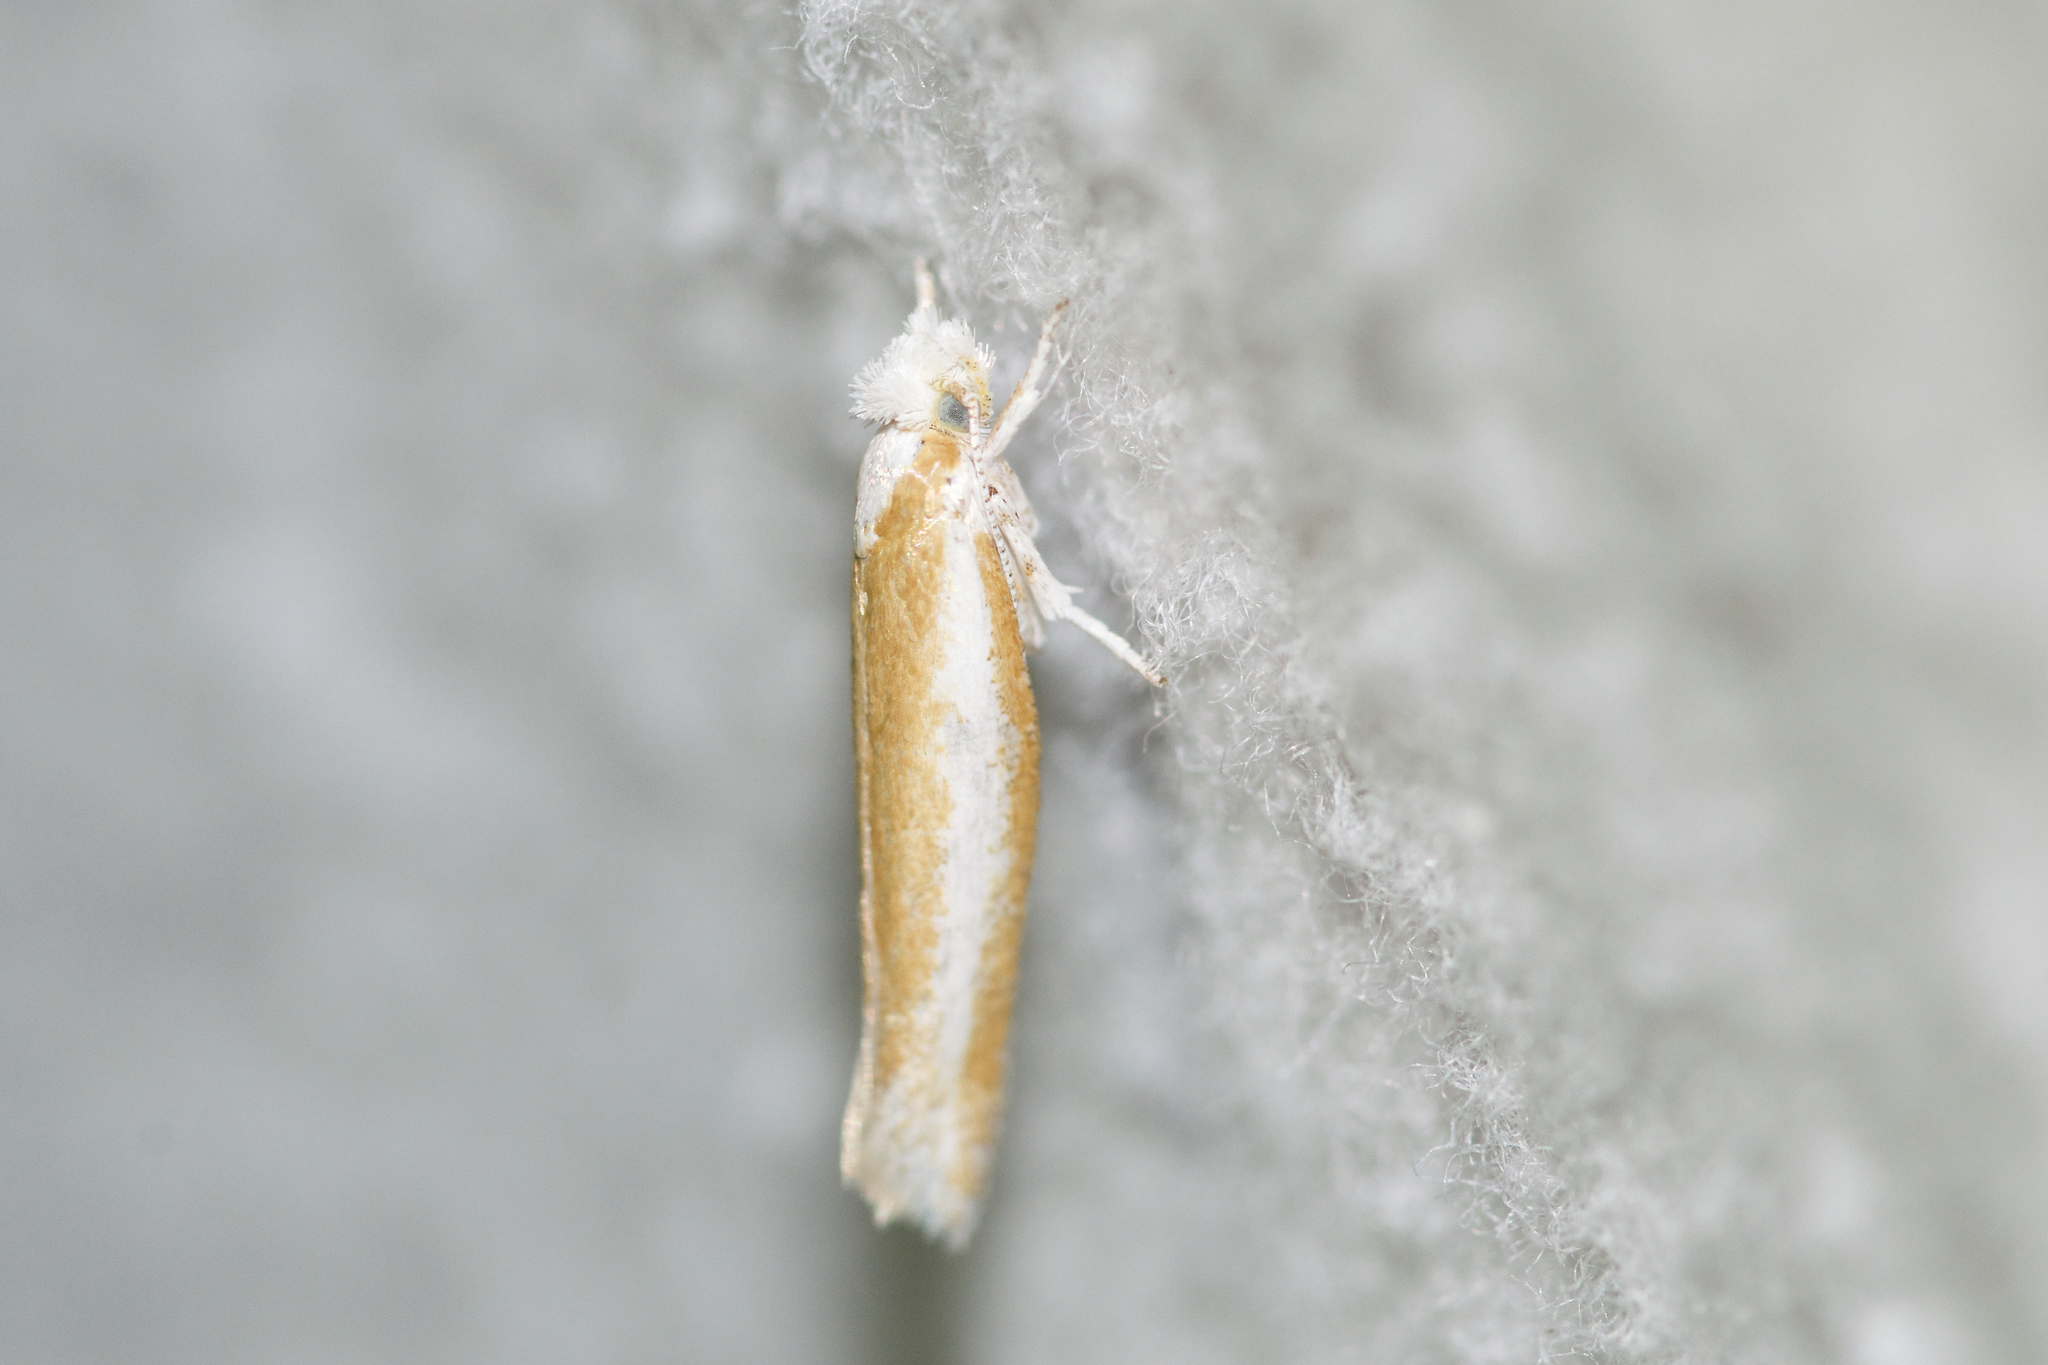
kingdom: Animalia
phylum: Arthropoda
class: Insecta
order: Lepidoptera
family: Yponomeutidae
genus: Zelleria
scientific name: Zelleria haimbachi
